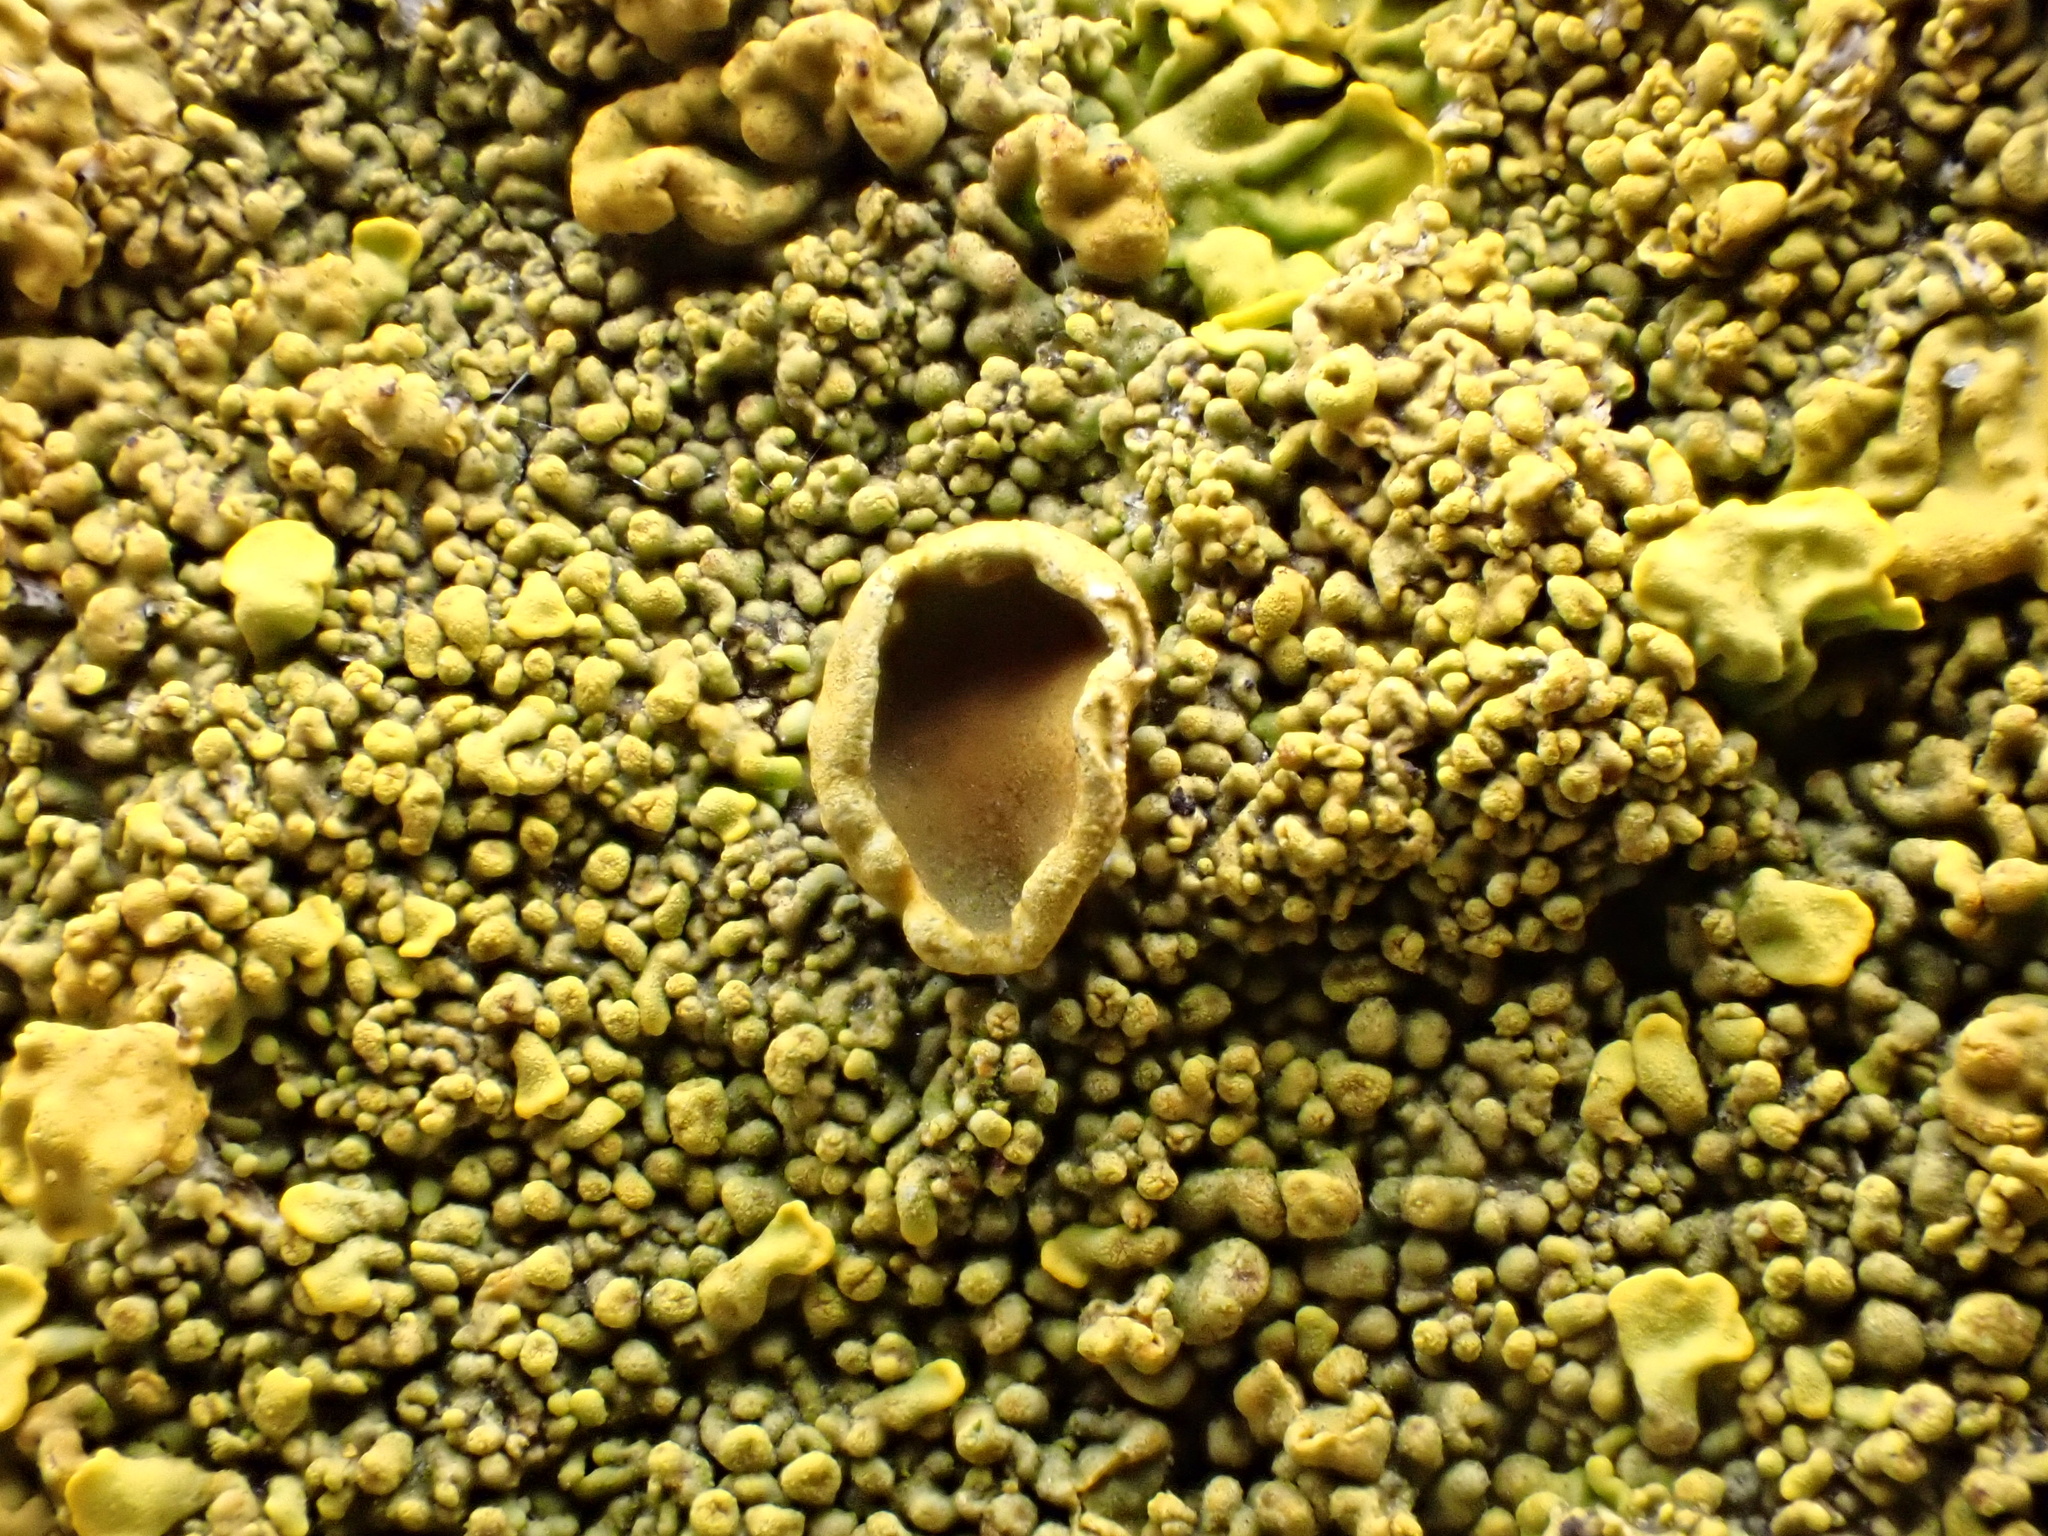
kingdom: Fungi
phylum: Ascomycota
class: Lecanoromycetes
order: Teloschistales
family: Teloschistaceae
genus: Xanthoria
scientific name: Xanthoria calcicola
